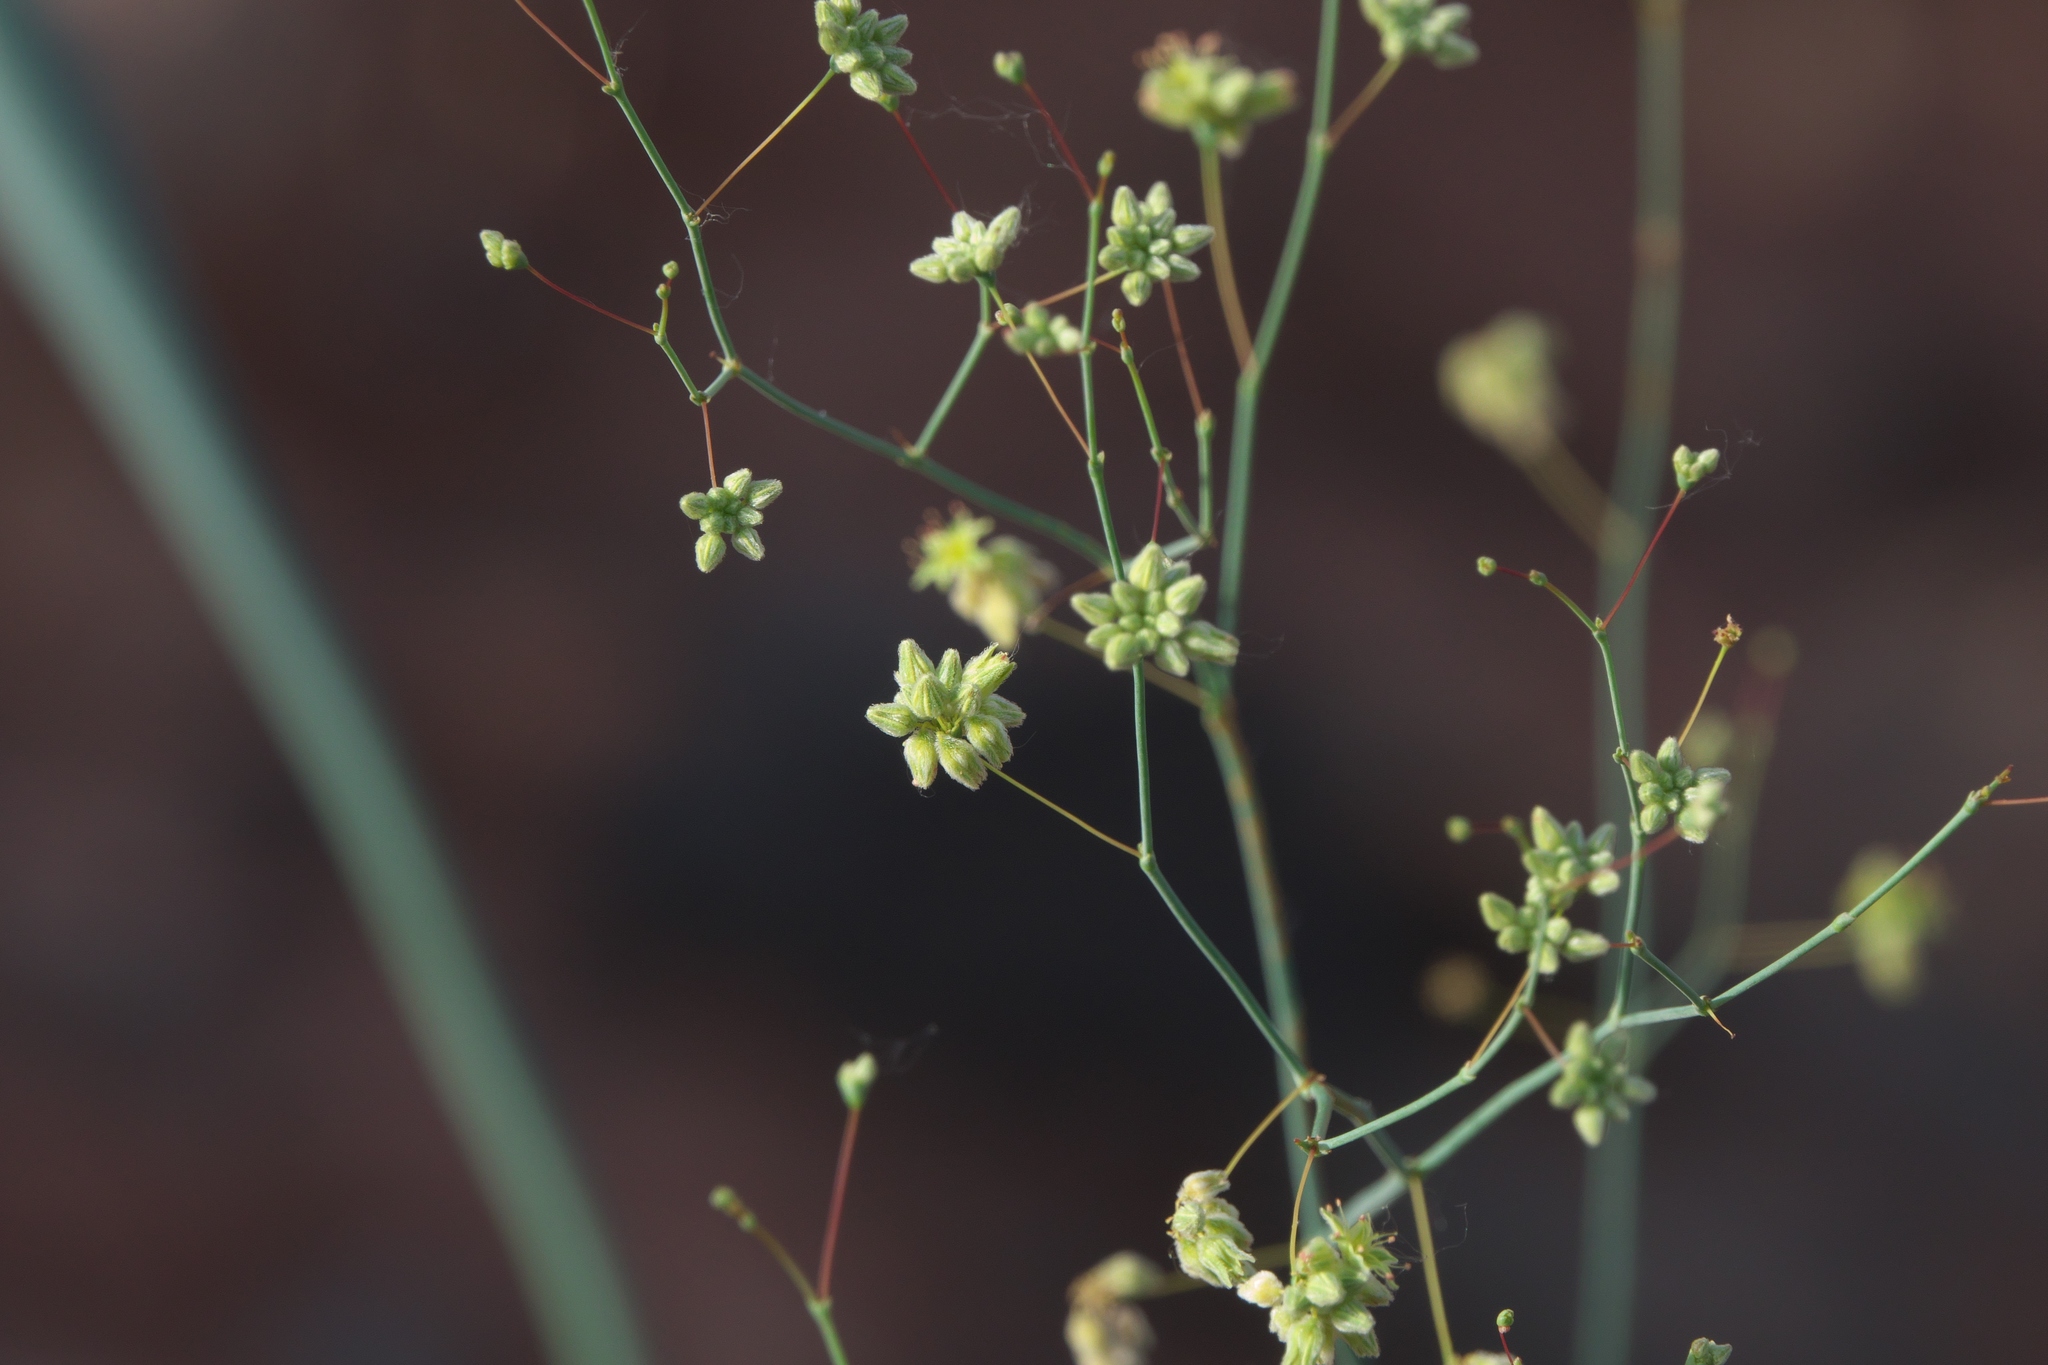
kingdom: Plantae
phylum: Tracheophyta
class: Magnoliopsida
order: Caryophyllales
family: Polygonaceae
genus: Eriogonum
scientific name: Eriogonum inflatum
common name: Desert trumpet
